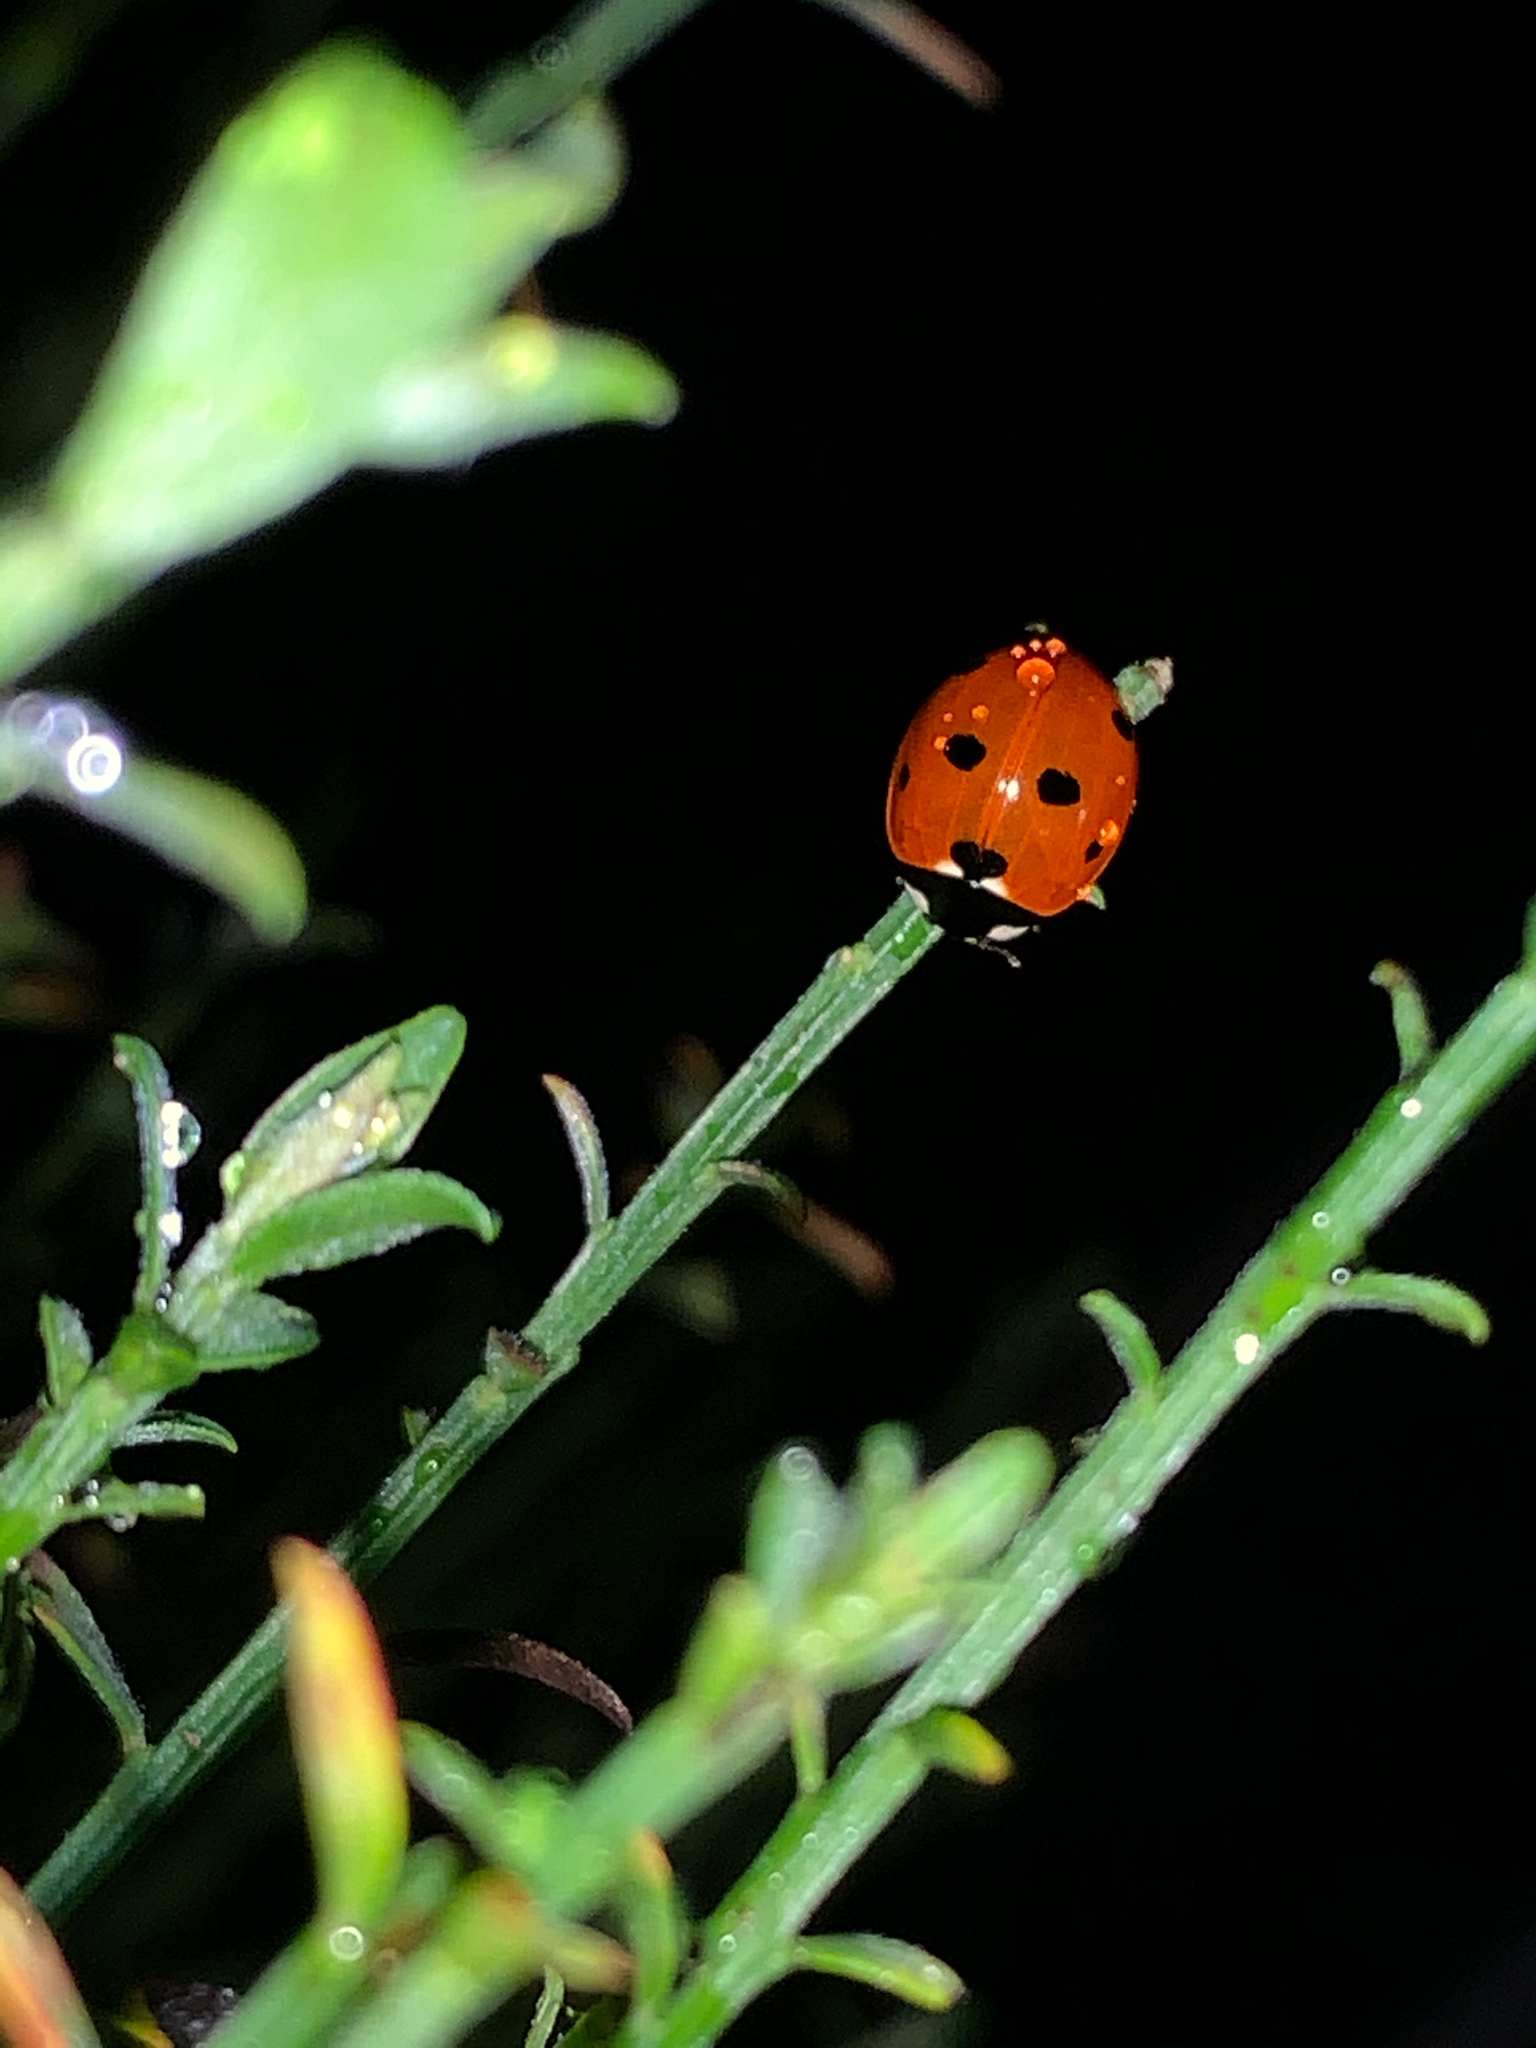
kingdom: Animalia
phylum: Arthropoda
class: Insecta
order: Coleoptera
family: Coccinellidae
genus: Coccinella
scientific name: Coccinella septempunctata
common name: Sevenspotted lady beetle
